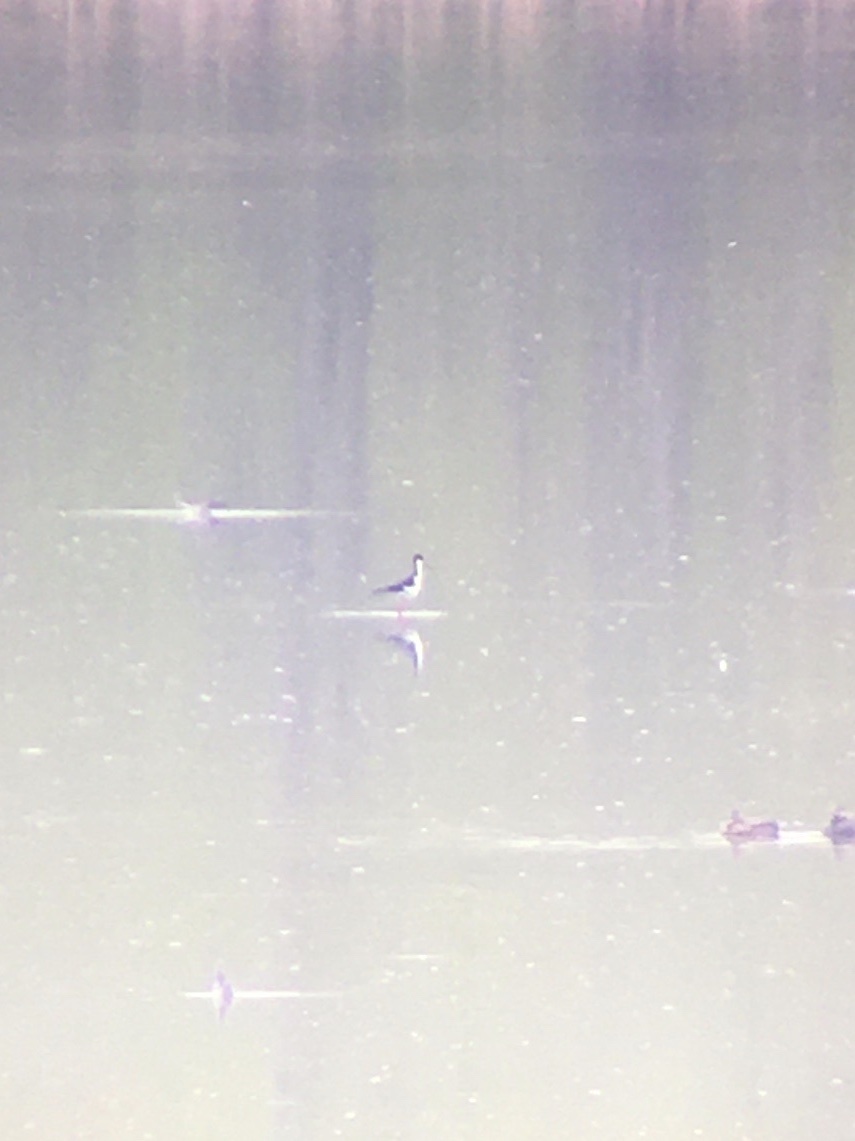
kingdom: Animalia
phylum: Chordata
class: Aves
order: Charadriiformes
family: Recurvirostridae
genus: Himantopus
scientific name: Himantopus mexicanus
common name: Black-necked stilt
